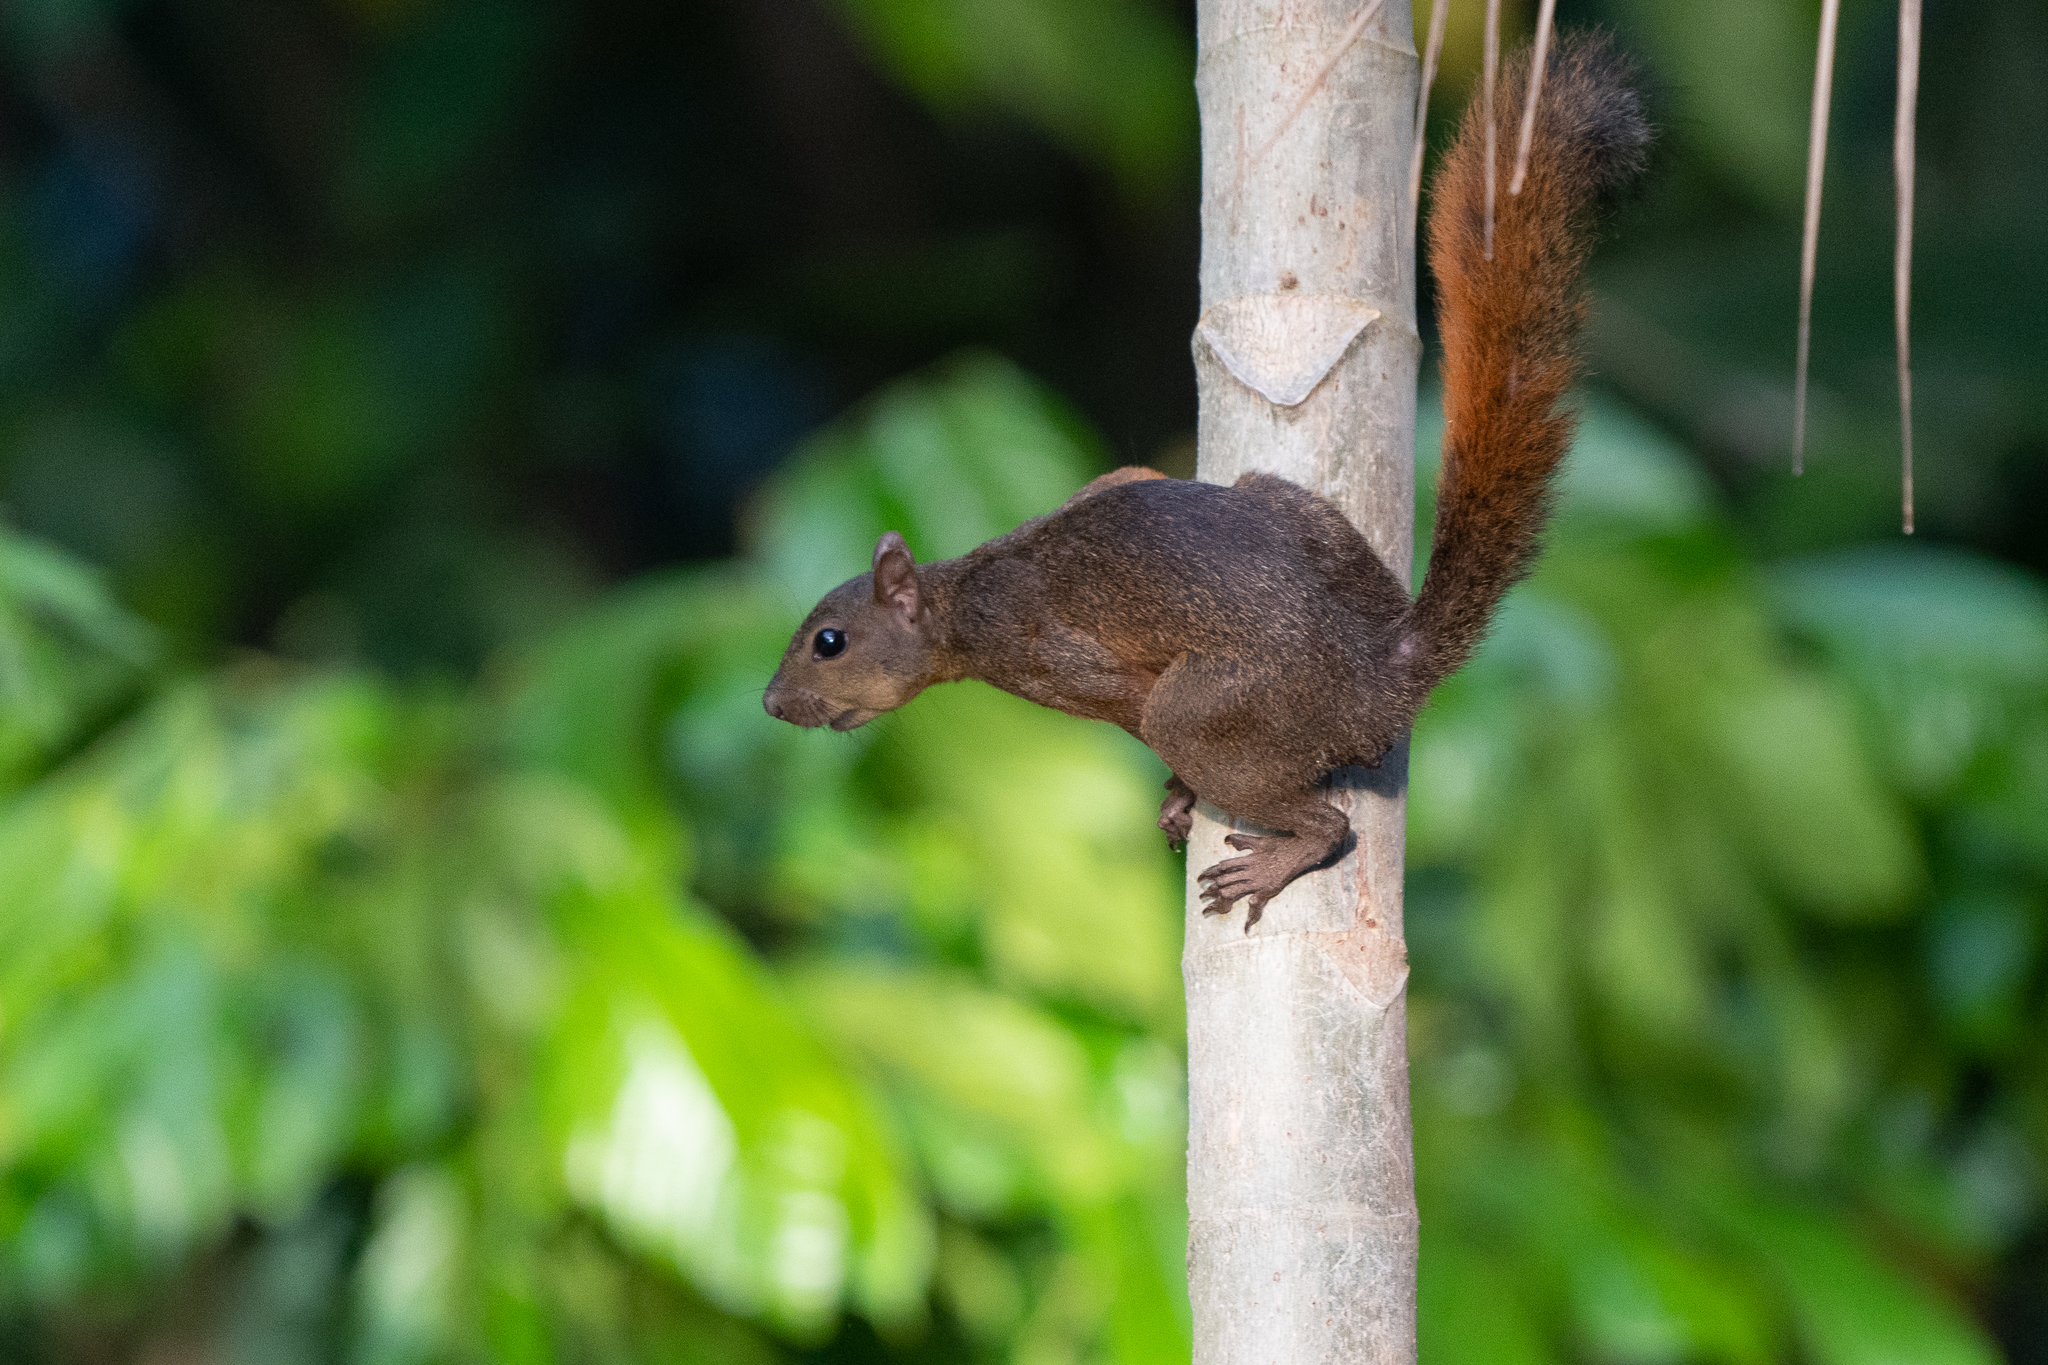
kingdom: Animalia
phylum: Chordata
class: Mammalia
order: Rodentia
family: Sciuridae
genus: Sciurus
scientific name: Sciurus granatensis
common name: Red-tailed squirrel
